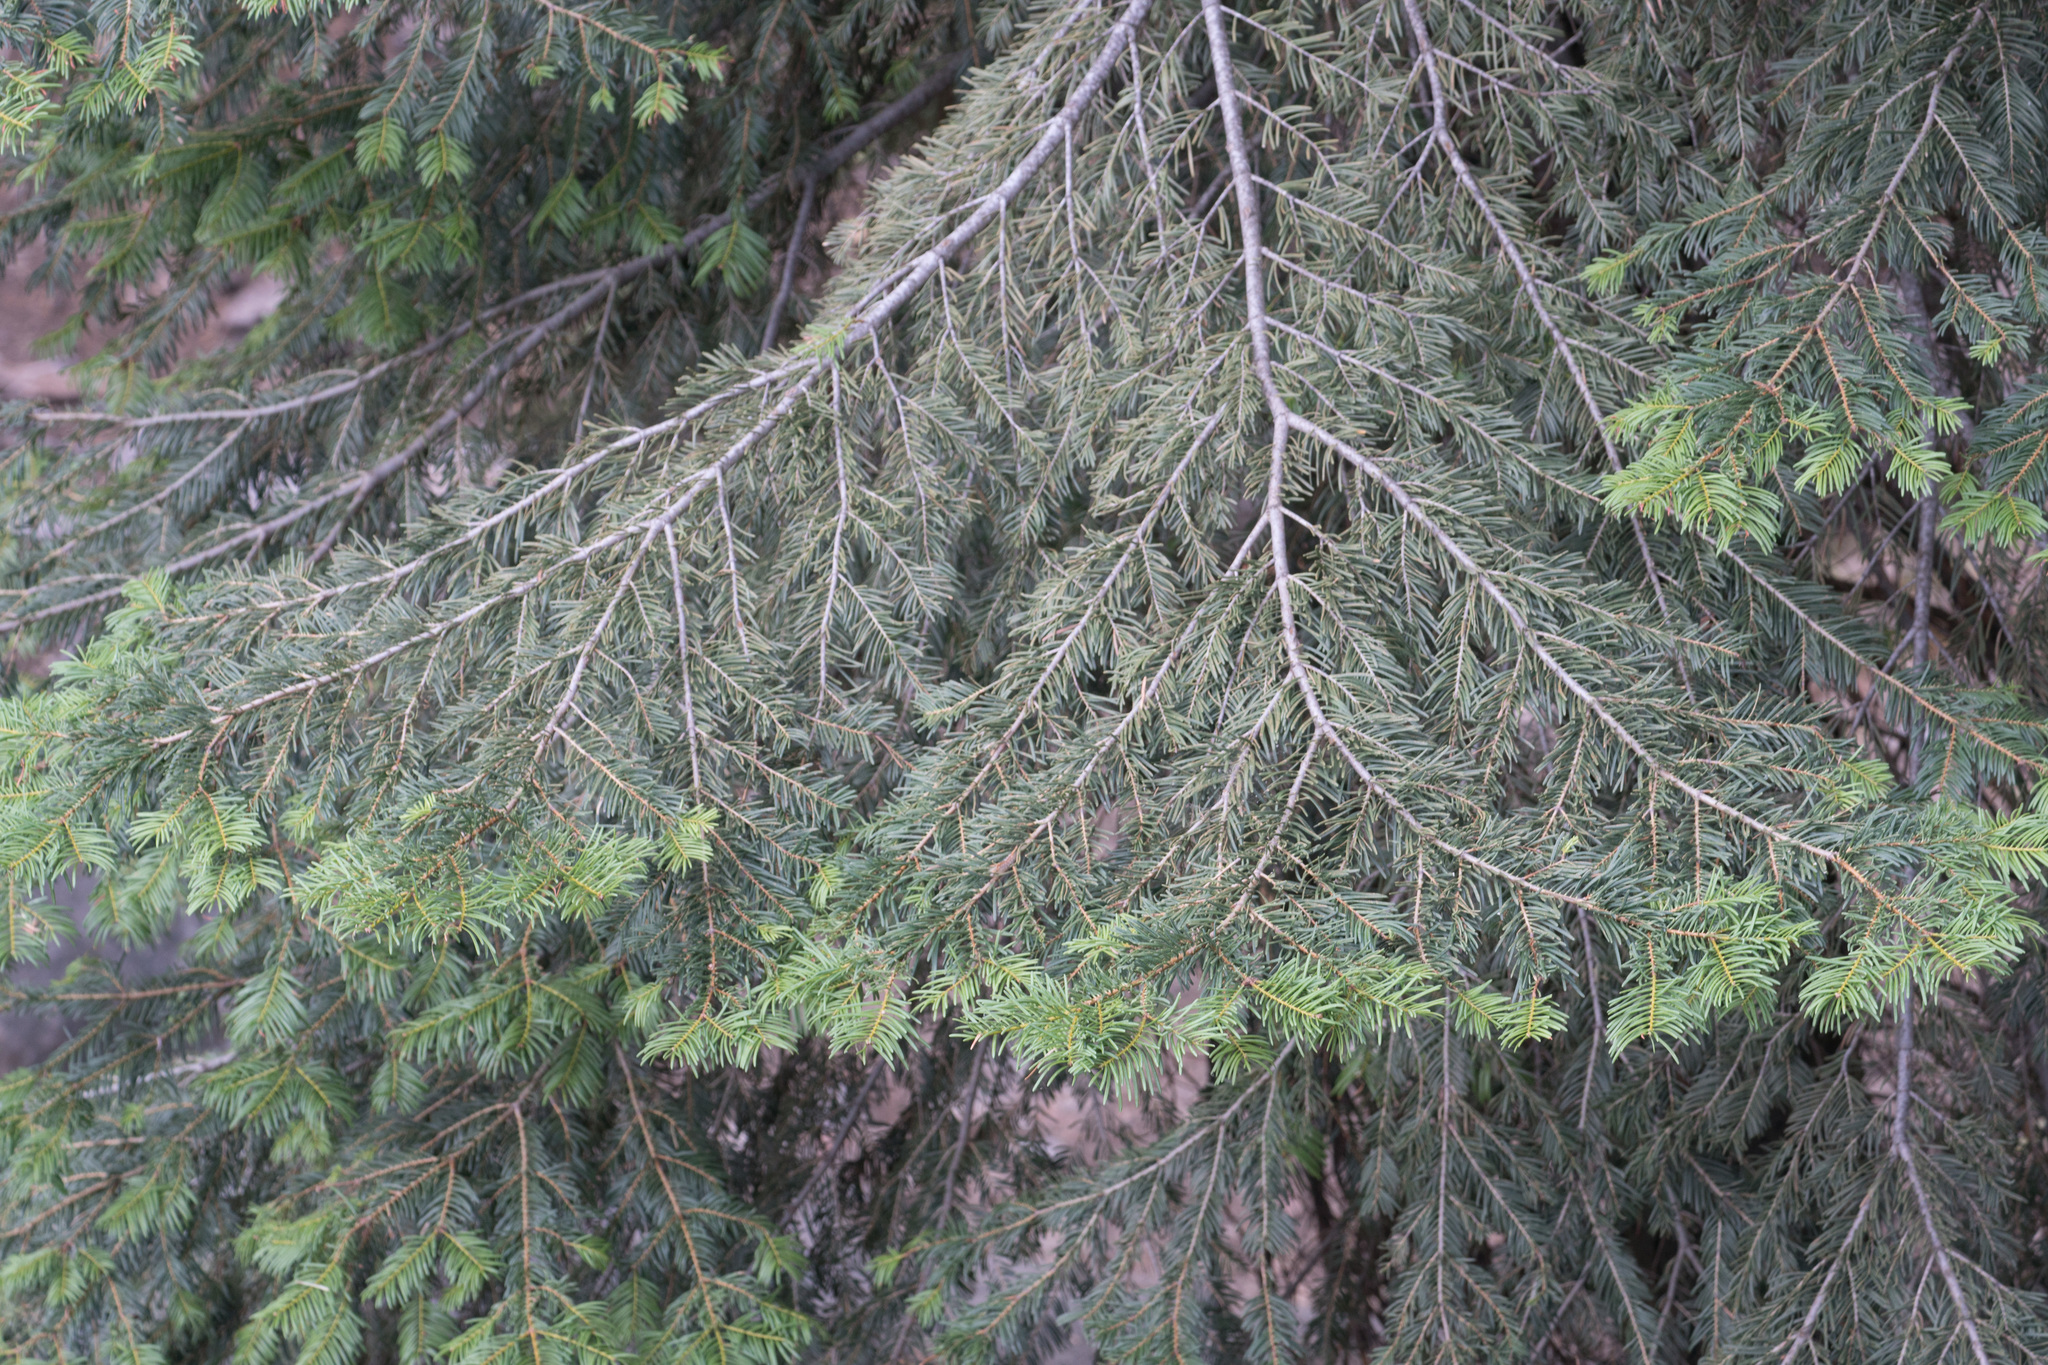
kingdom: Plantae
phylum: Tracheophyta
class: Pinopsida
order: Pinales
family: Pinaceae
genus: Abies
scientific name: Abies concolor
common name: Colorado fir
